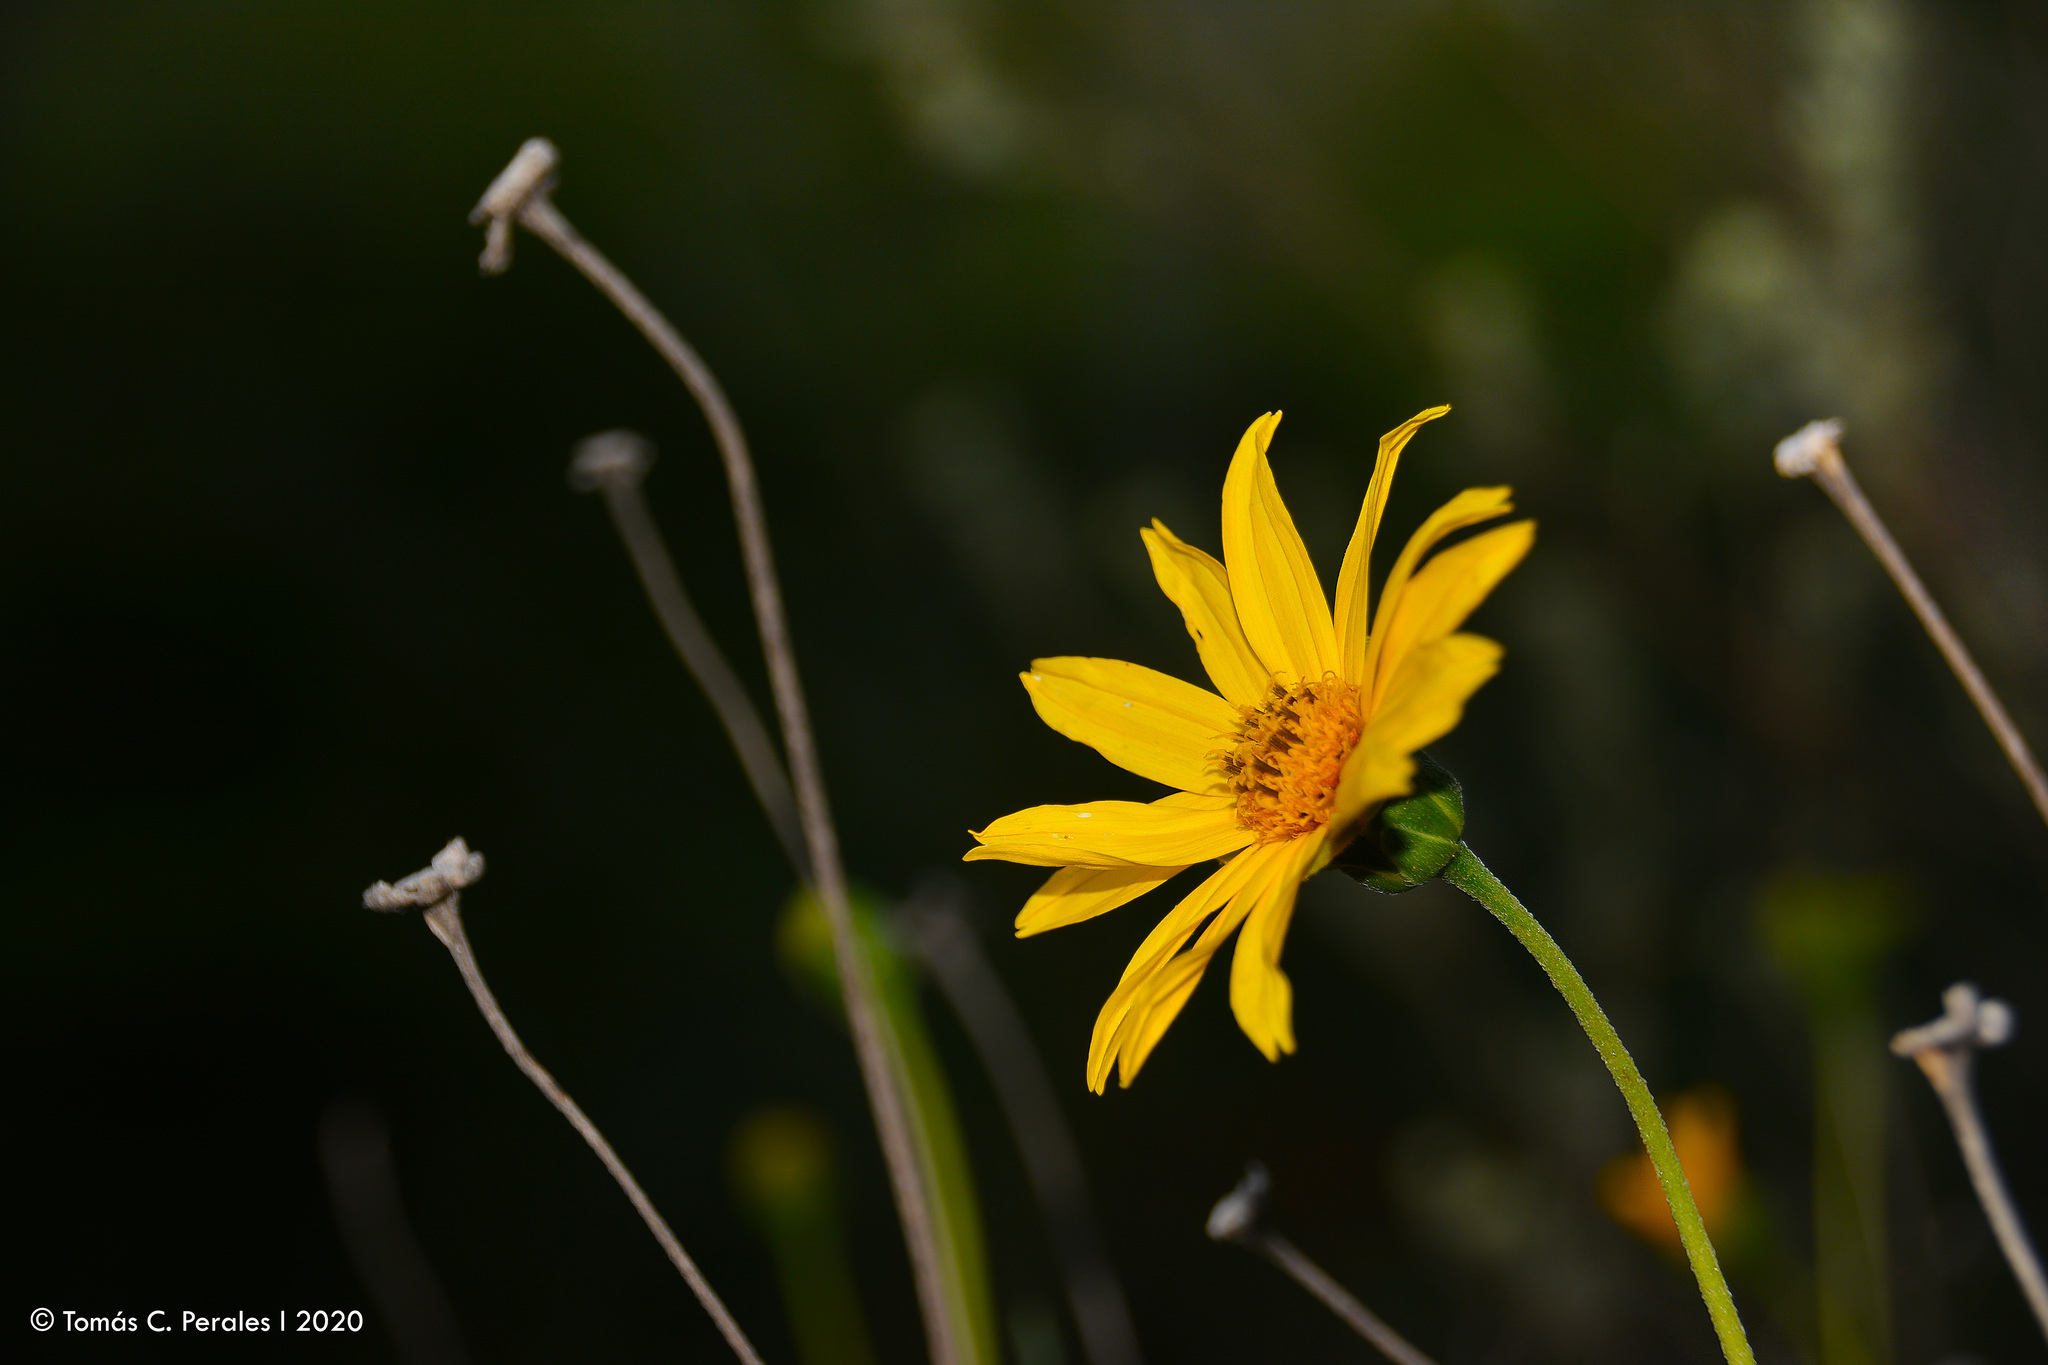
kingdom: Plantae
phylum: Tracheophyta
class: Magnoliopsida
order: Asterales
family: Asteraceae
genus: Zexmenia
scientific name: Zexmenia buphtalmiflora
